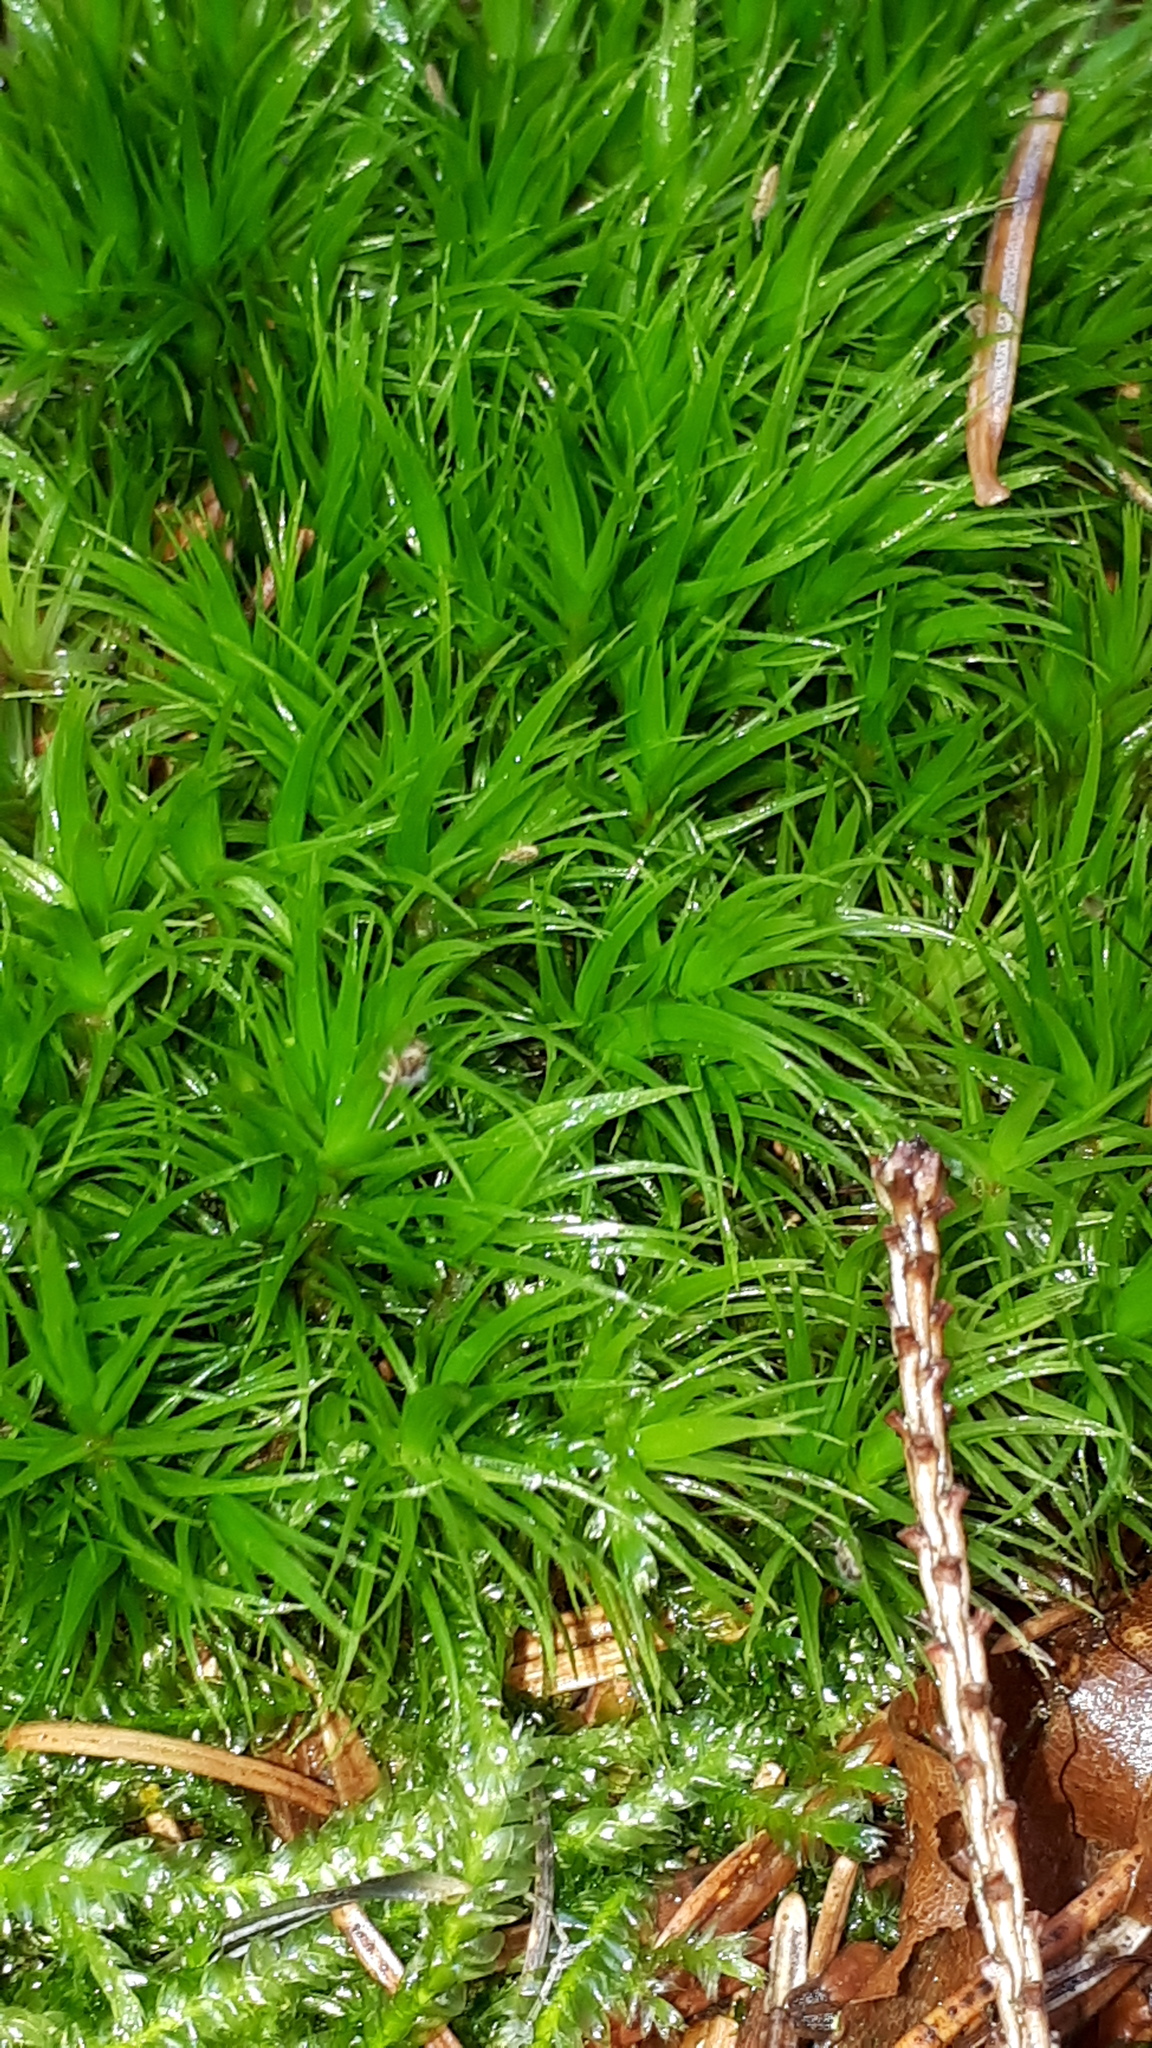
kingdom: Plantae
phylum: Bryophyta
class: Bryopsida
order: Dicranales
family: Dicranaceae
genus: Dicranum
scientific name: Dicranum scoparium
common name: Broom fork-moss
